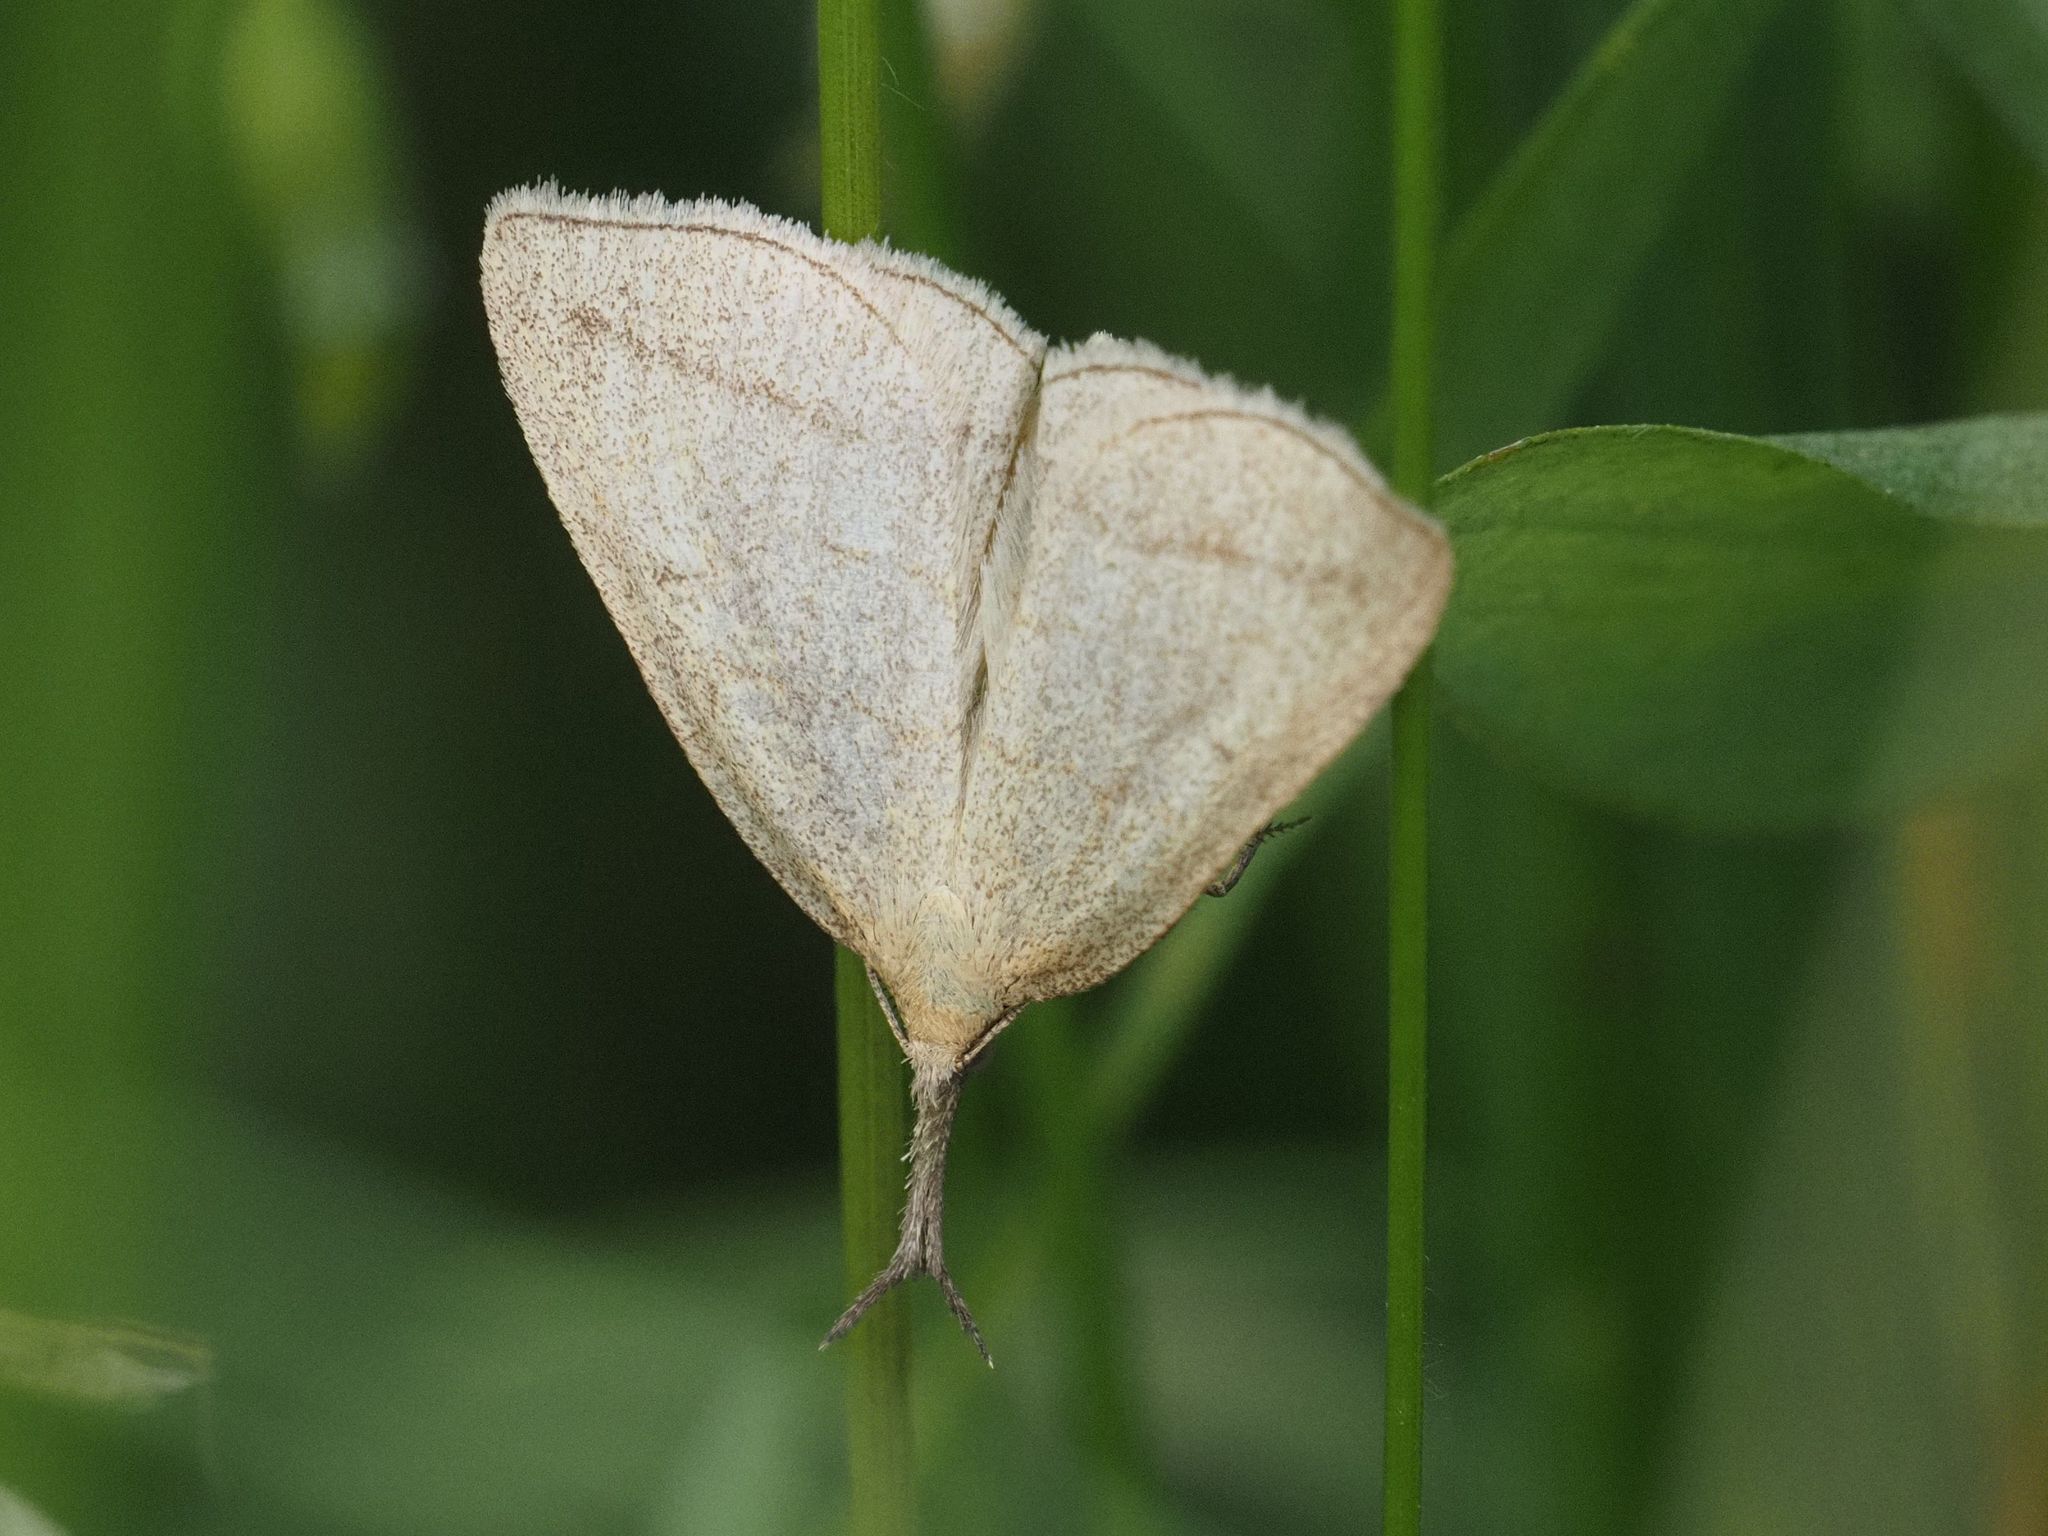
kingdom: Animalia
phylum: Arthropoda
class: Insecta
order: Lepidoptera
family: Erebidae
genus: Polypogon
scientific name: Polypogon tentacularia
